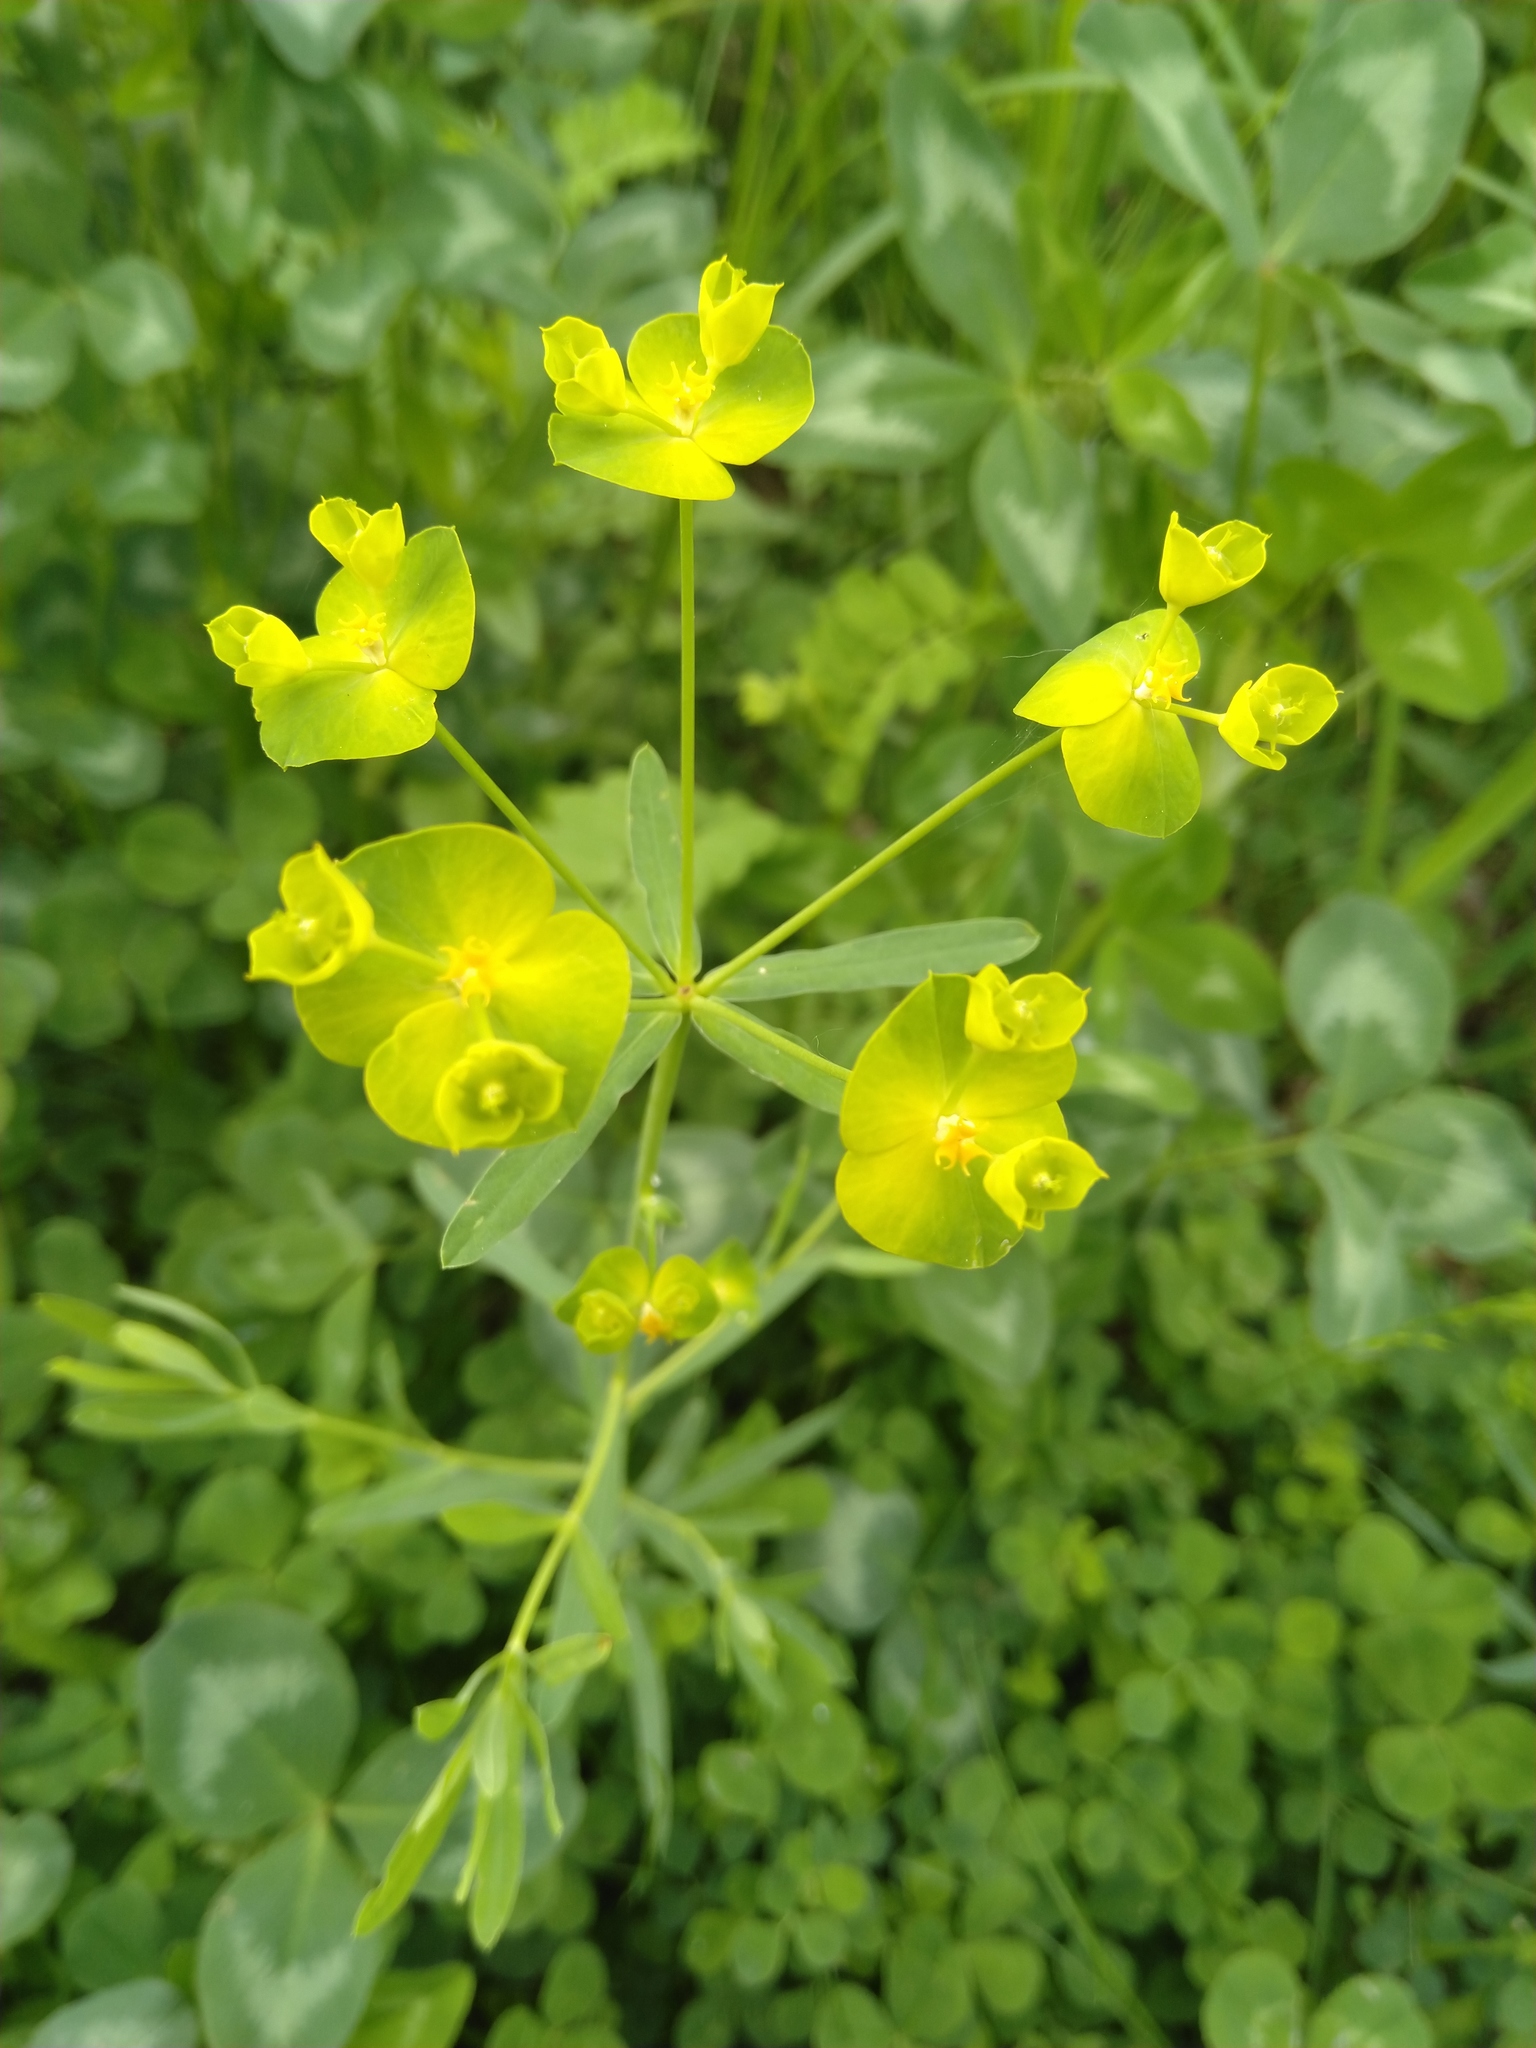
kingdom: Plantae
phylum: Tracheophyta
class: Magnoliopsida
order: Malpighiales
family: Euphorbiaceae
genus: Euphorbia
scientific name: Euphorbia virgata
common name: Leafy spurge
